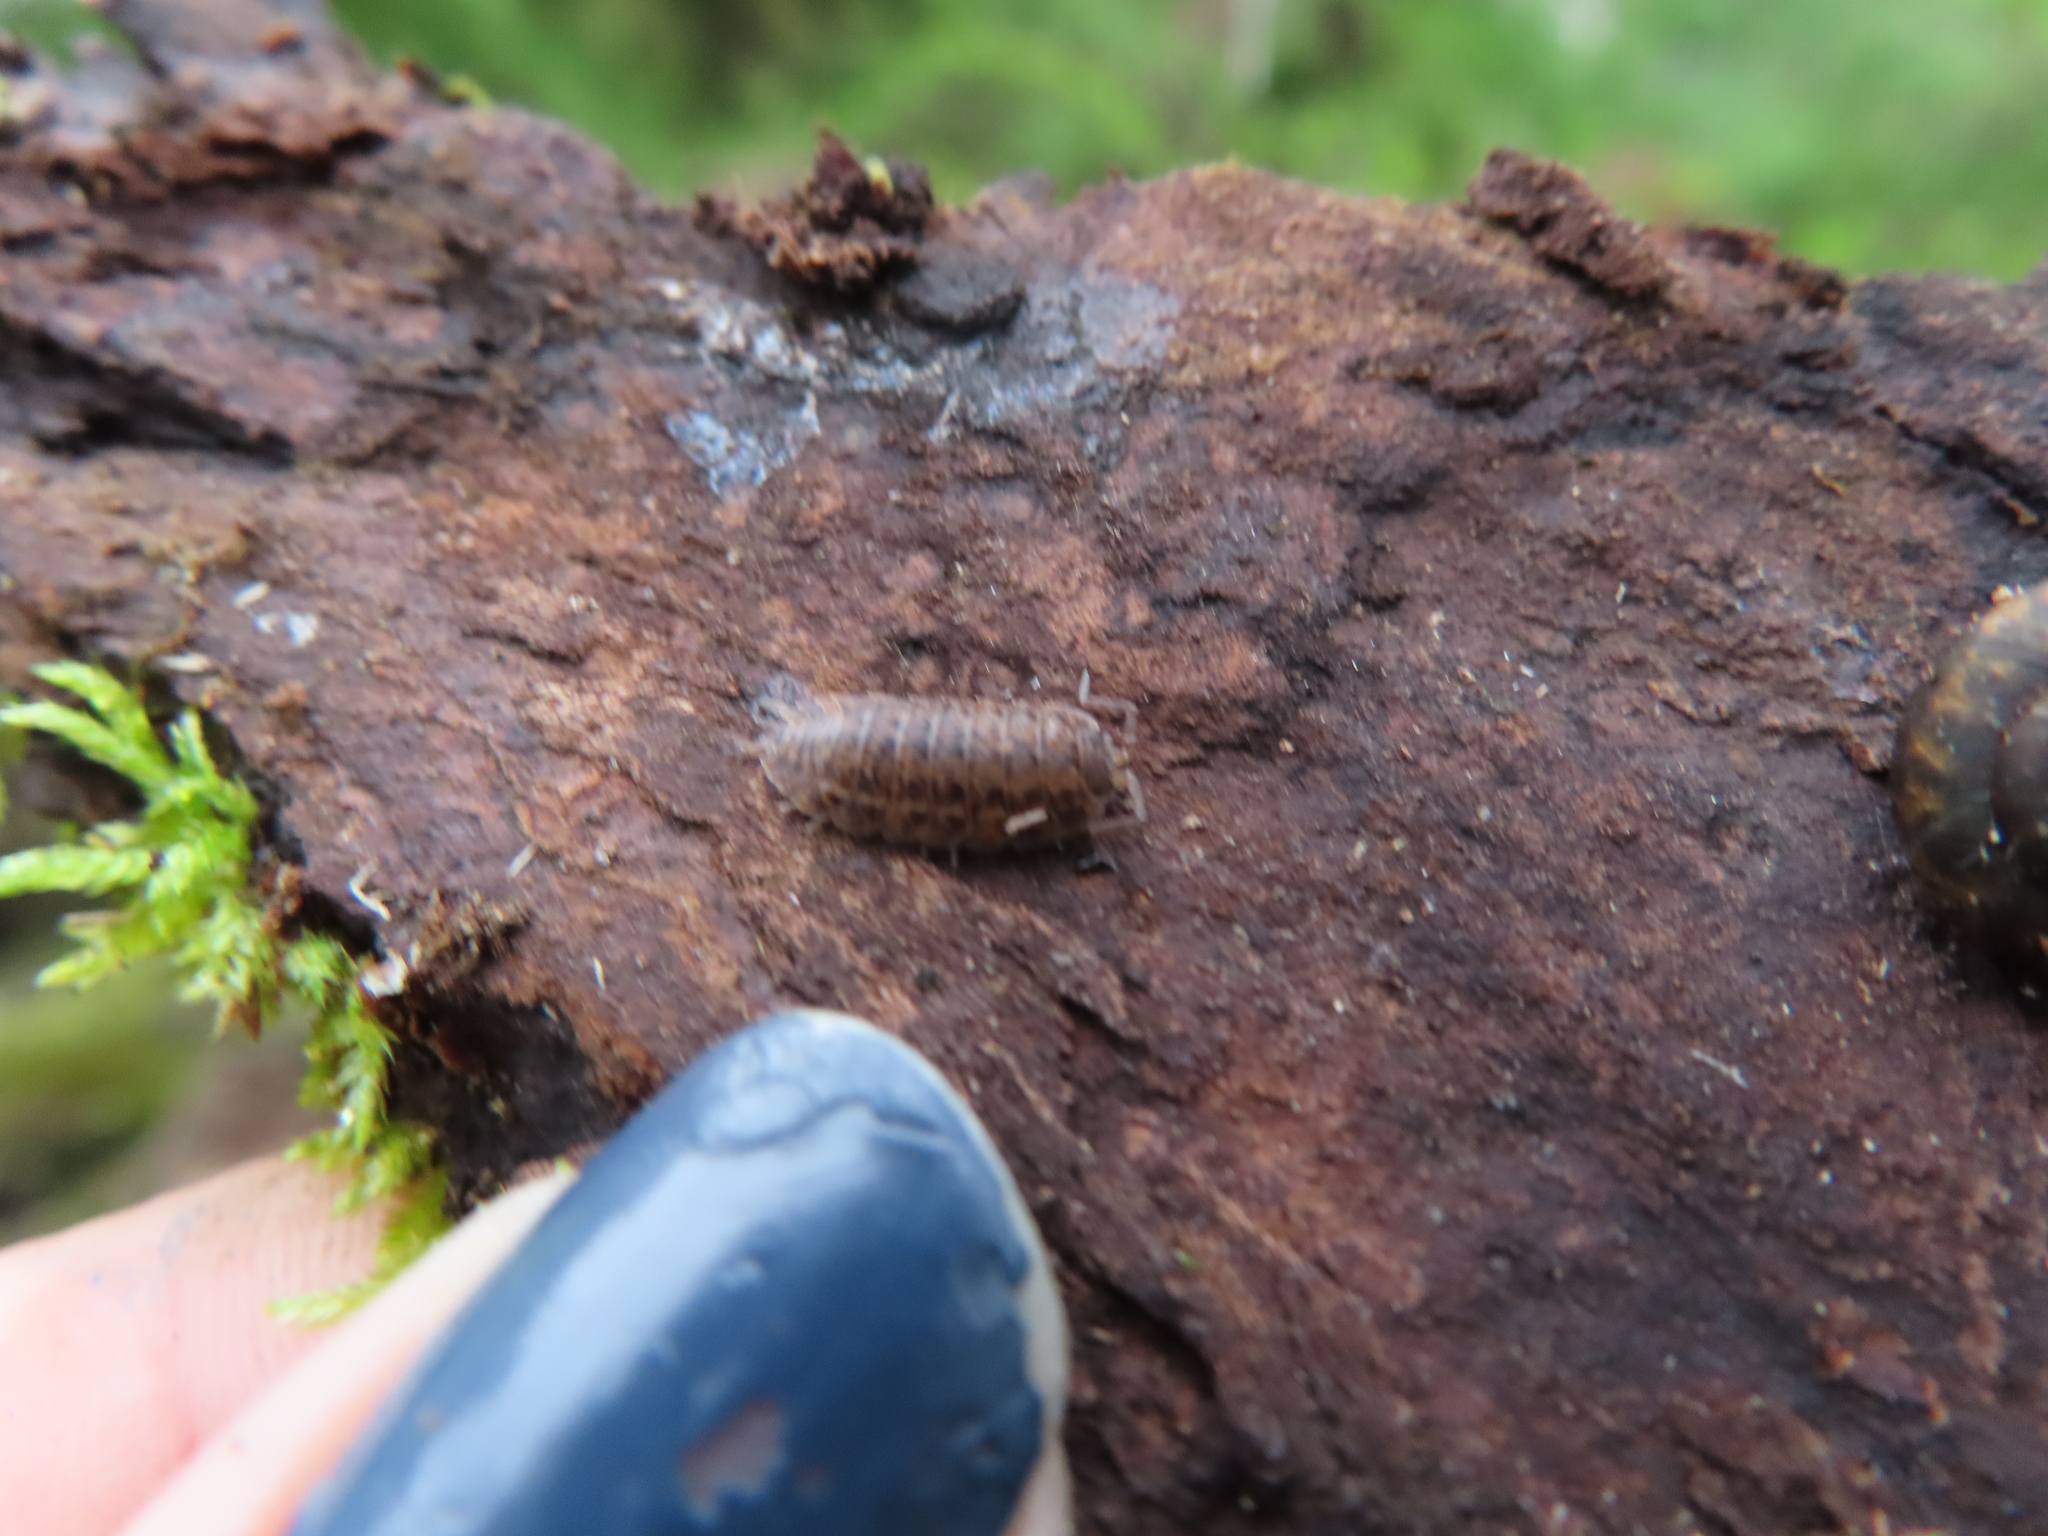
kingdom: Animalia
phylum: Arthropoda
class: Malacostraca
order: Isopoda
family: Trachelipodidae
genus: Trachelipus
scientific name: Trachelipus rathkii
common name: Isopod
